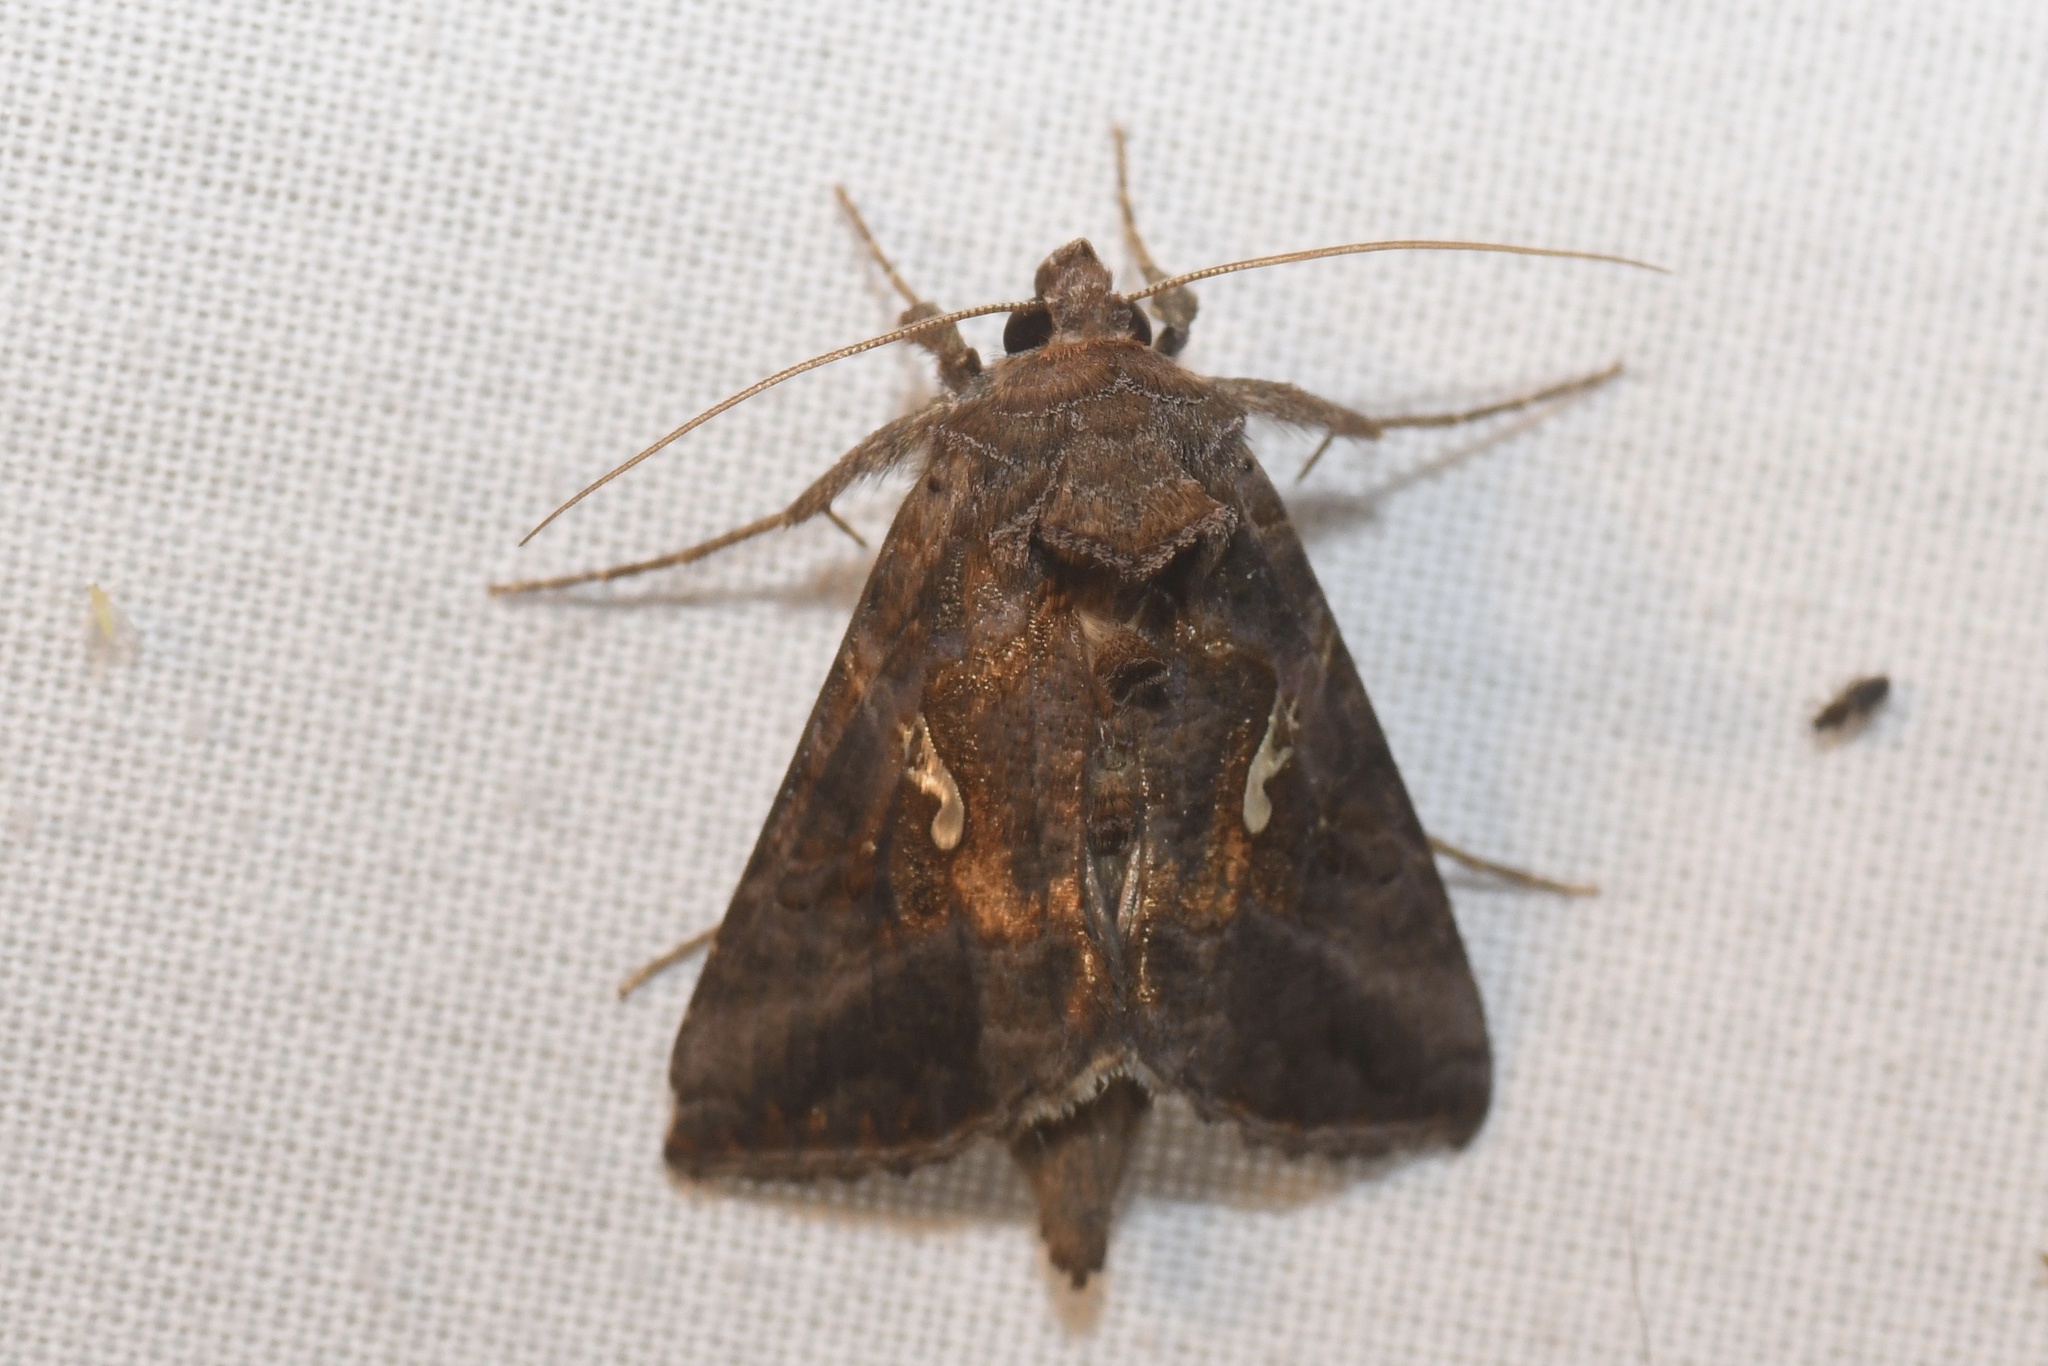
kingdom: Animalia
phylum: Arthropoda
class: Insecta
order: Lepidoptera
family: Noctuidae
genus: Autographa
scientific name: Autographa precationis
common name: Common looper moth
